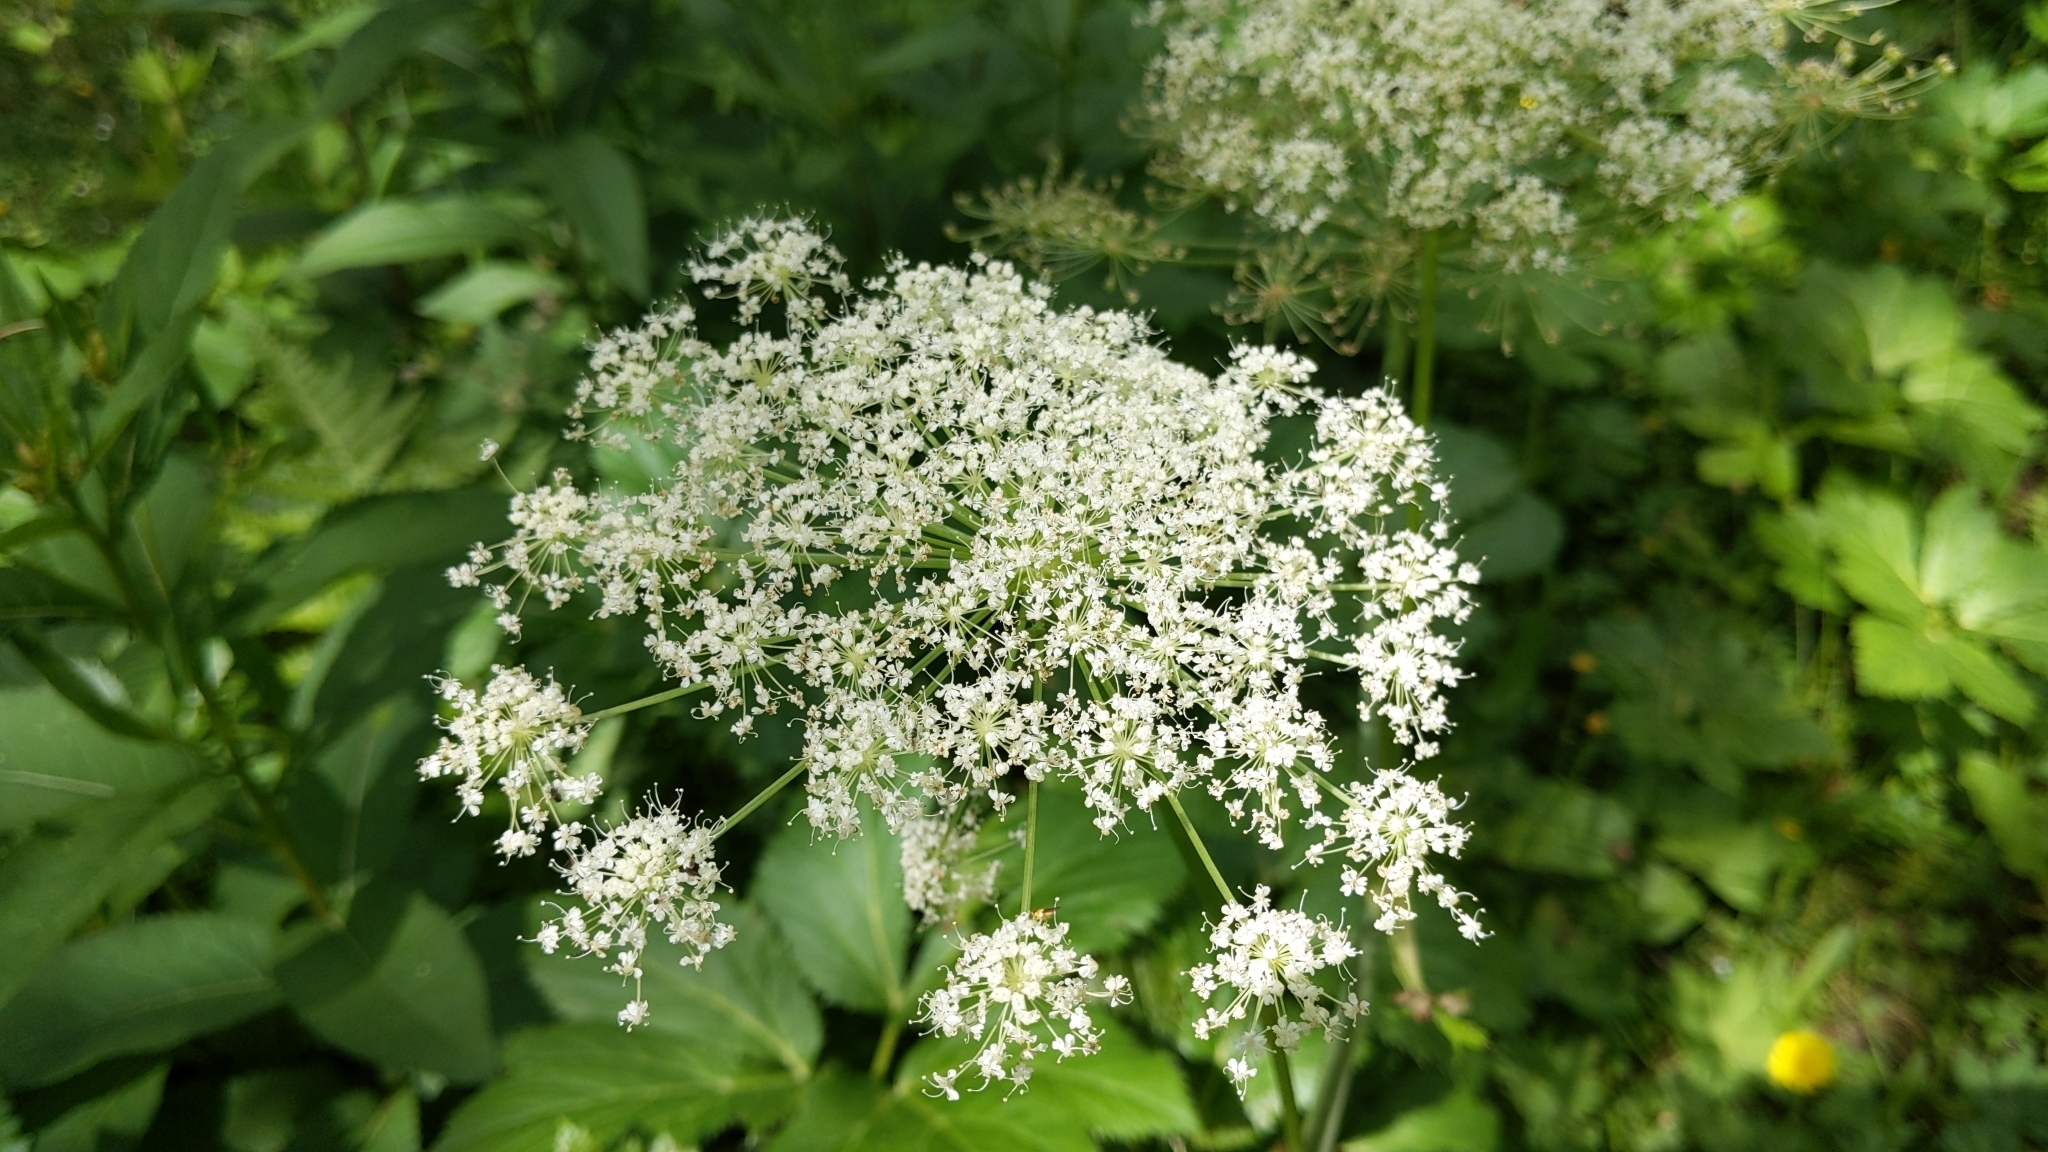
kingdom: Plantae
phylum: Tracheophyta
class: Magnoliopsida
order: Apiales
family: Apiaceae
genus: Imperatoria
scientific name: Imperatoria ostruthium
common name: Masterwort
